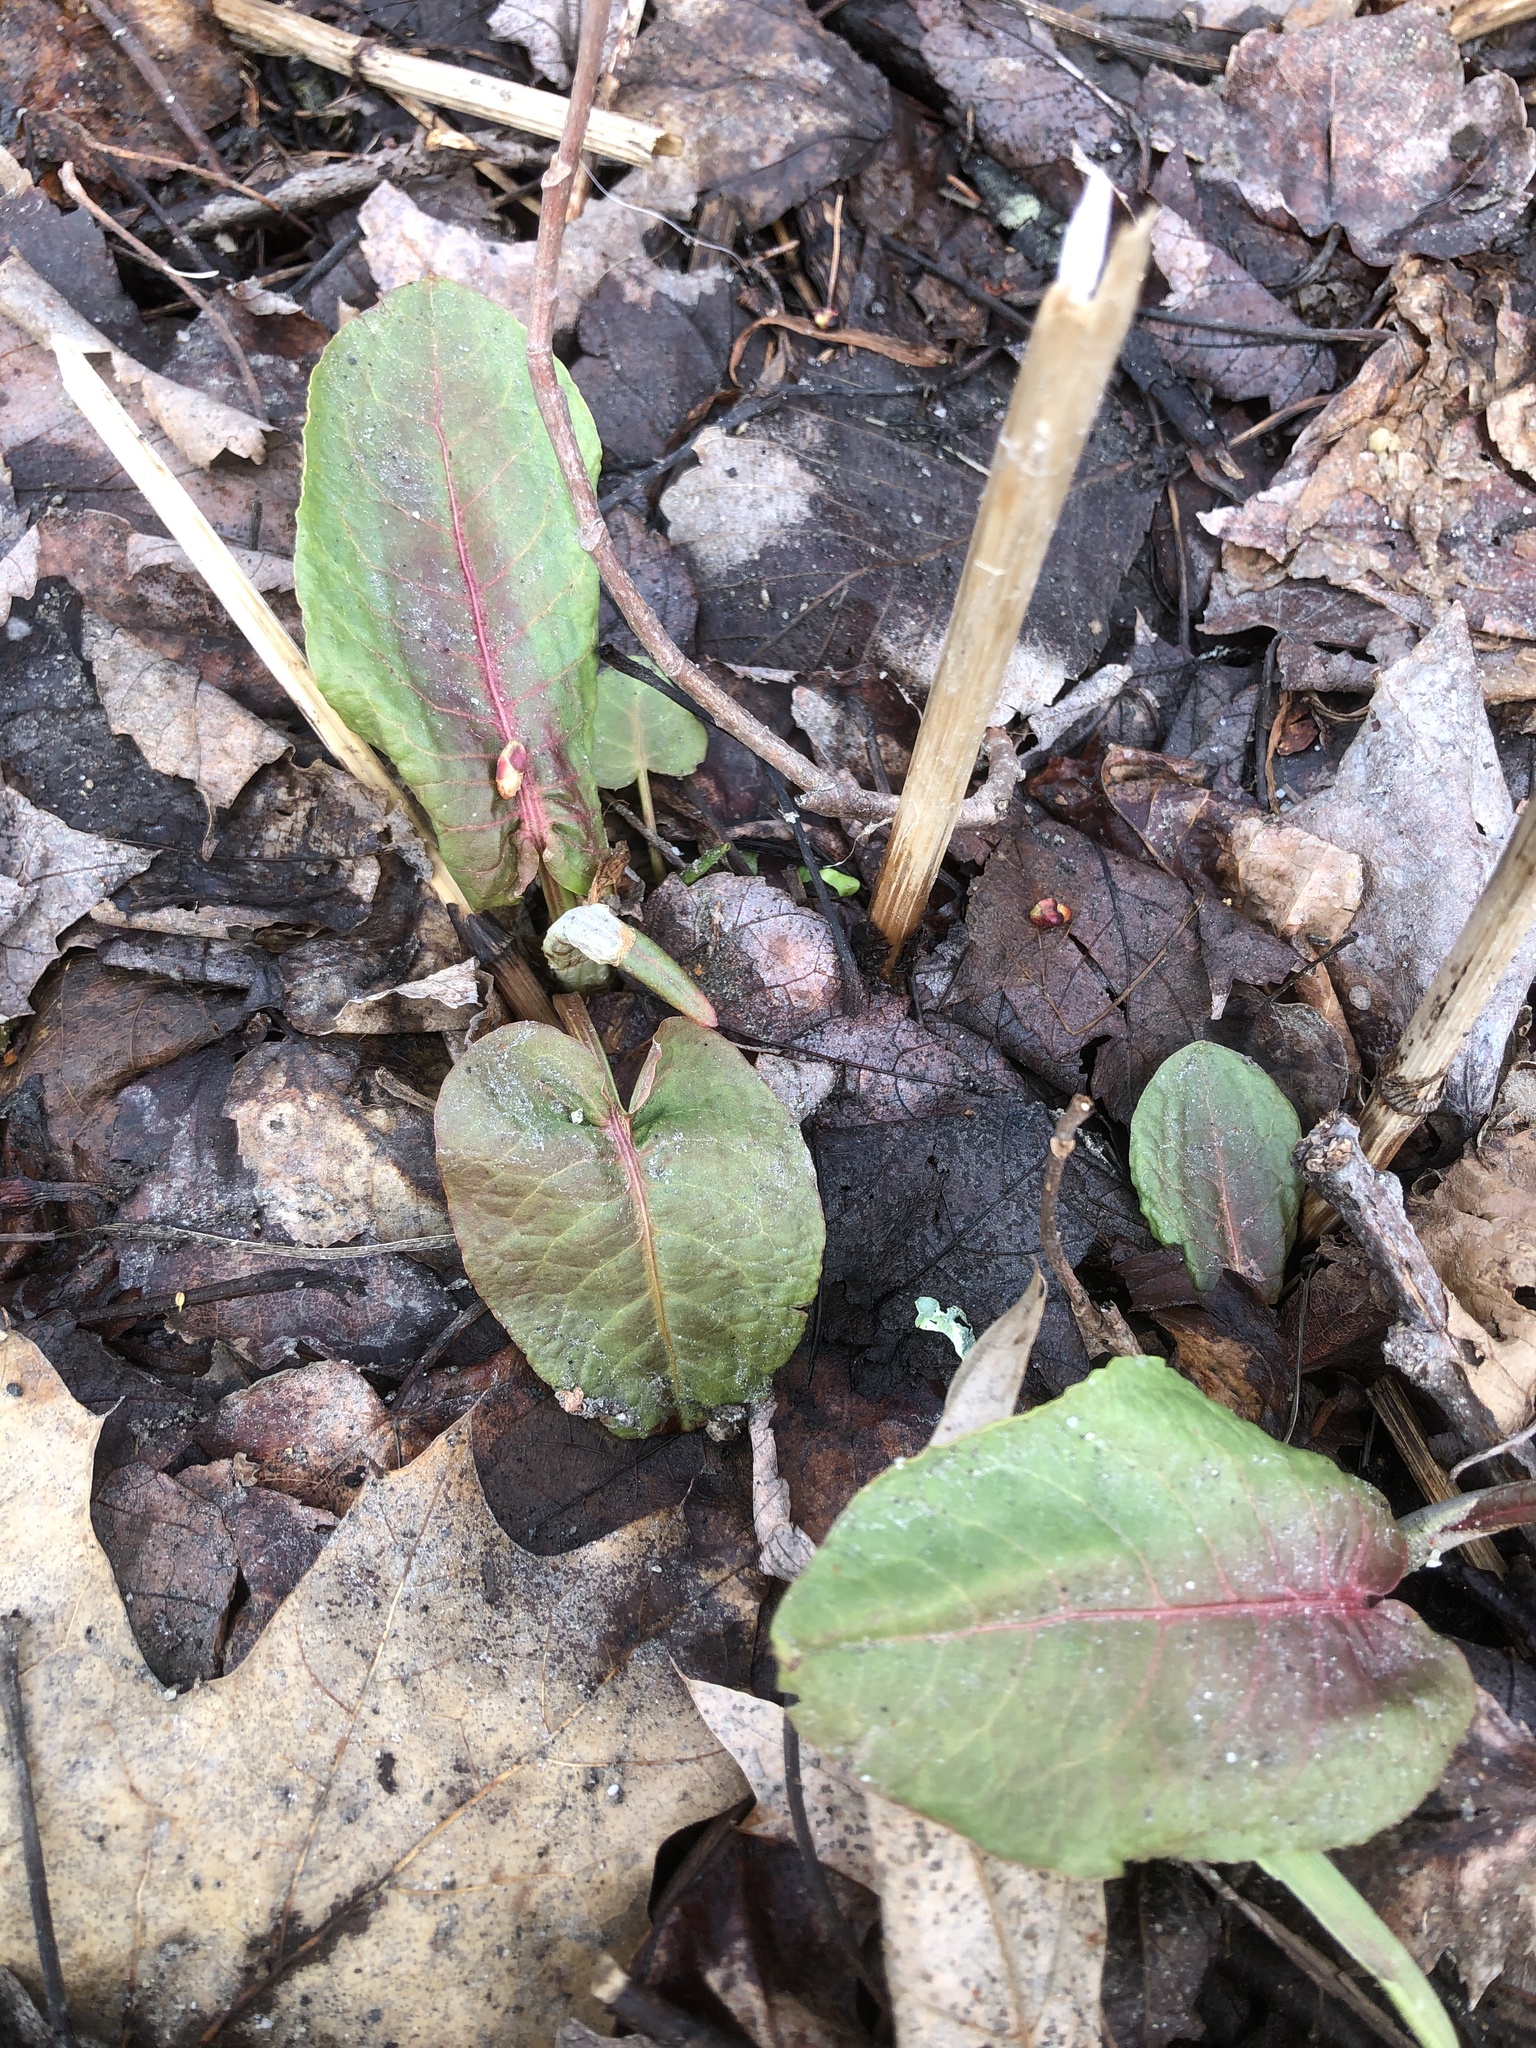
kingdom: Plantae
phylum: Tracheophyta
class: Magnoliopsida
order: Caryophyllales
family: Polygonaceae
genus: Rumex
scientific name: Rumex obtusifolius
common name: Bitter dock
